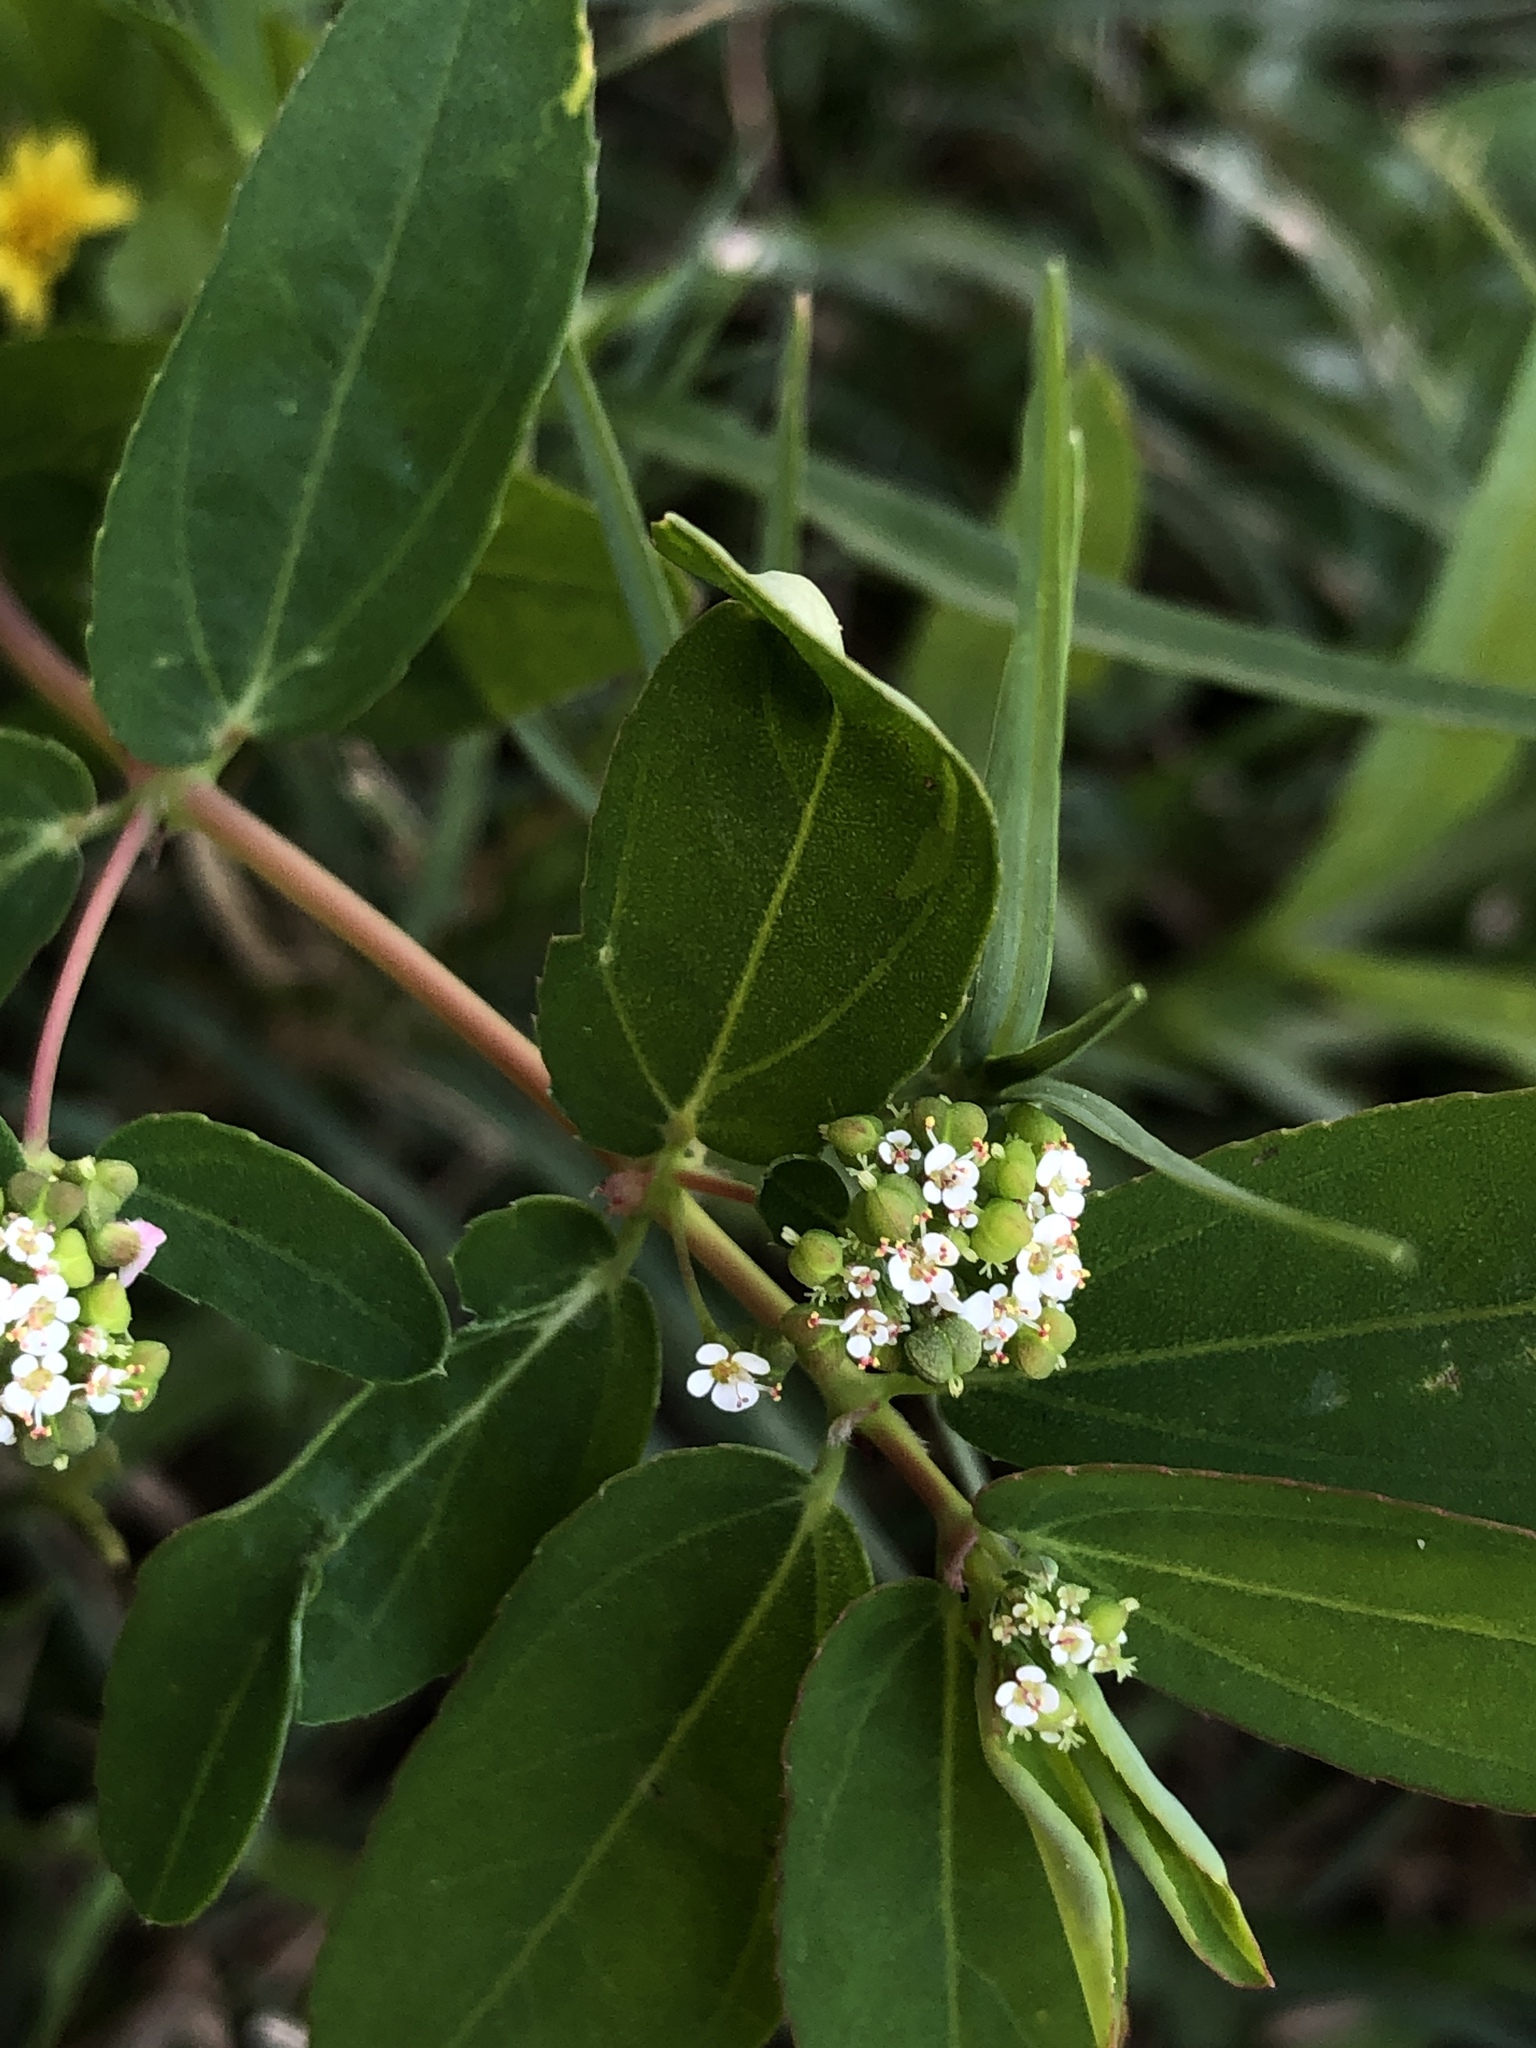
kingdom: Plantae
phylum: Tracheophyta
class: Magnoliopsida
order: Malpighiales
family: Euphorbiaceae
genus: Euphorbia
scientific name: Euphorbia hypericifolia
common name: Graceful sandmat
